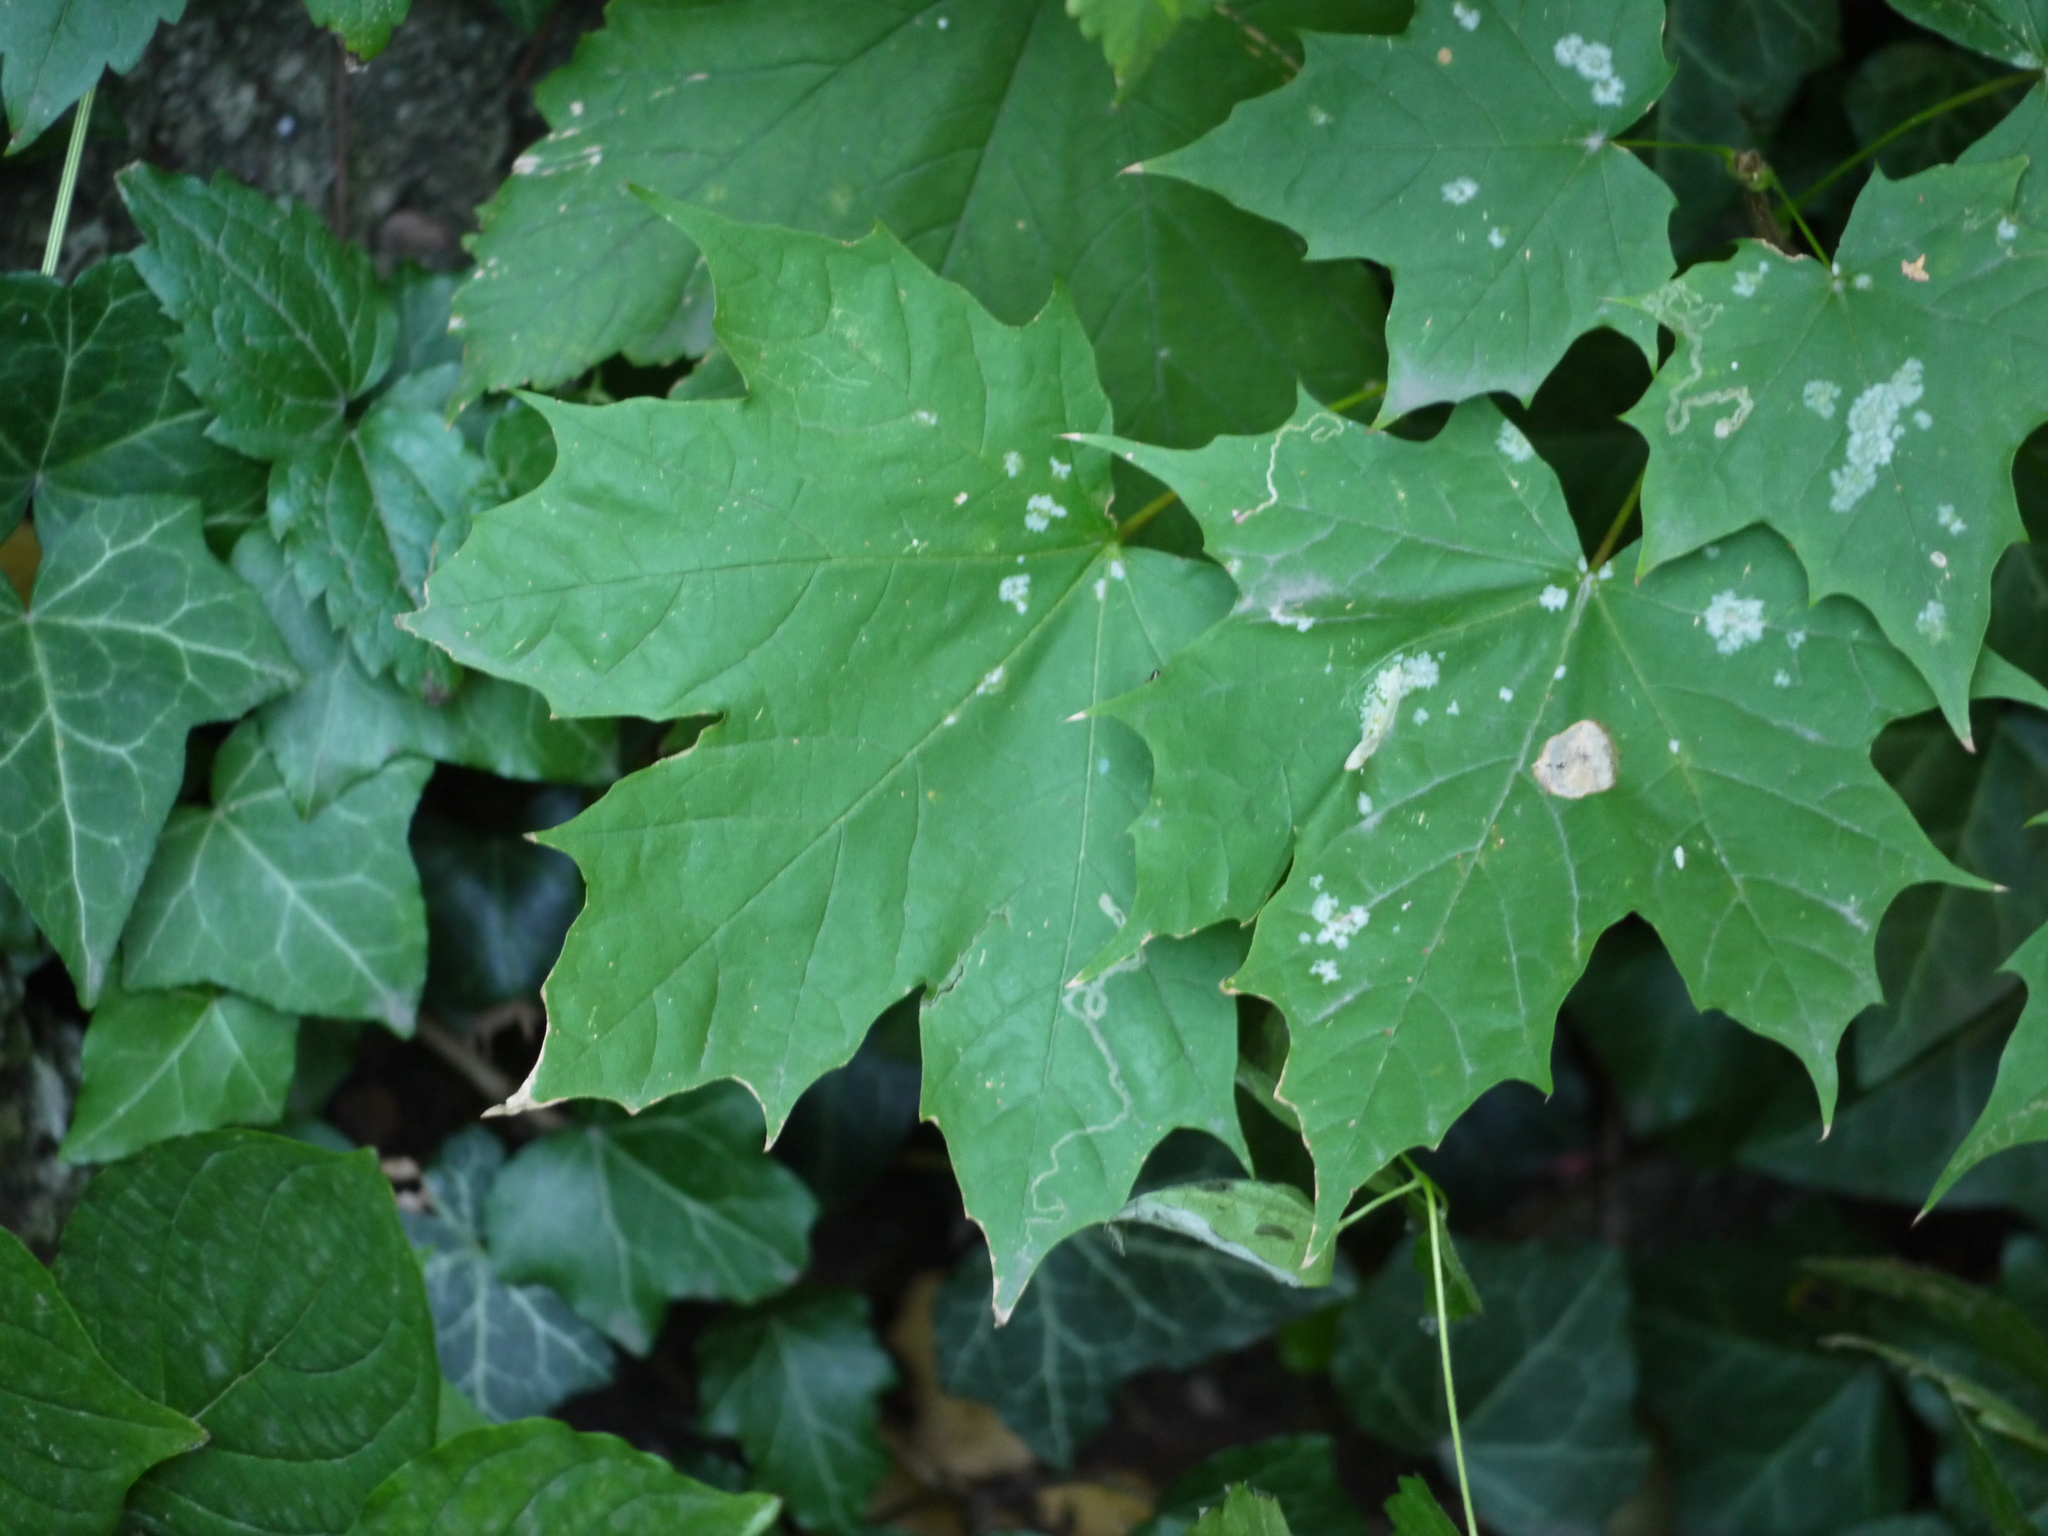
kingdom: Plantae
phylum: Tracheophyta
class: Magnoliopsida
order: Sapindales
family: Sapindaceae
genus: Acer
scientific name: Acer platanoides
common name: Norway maple
